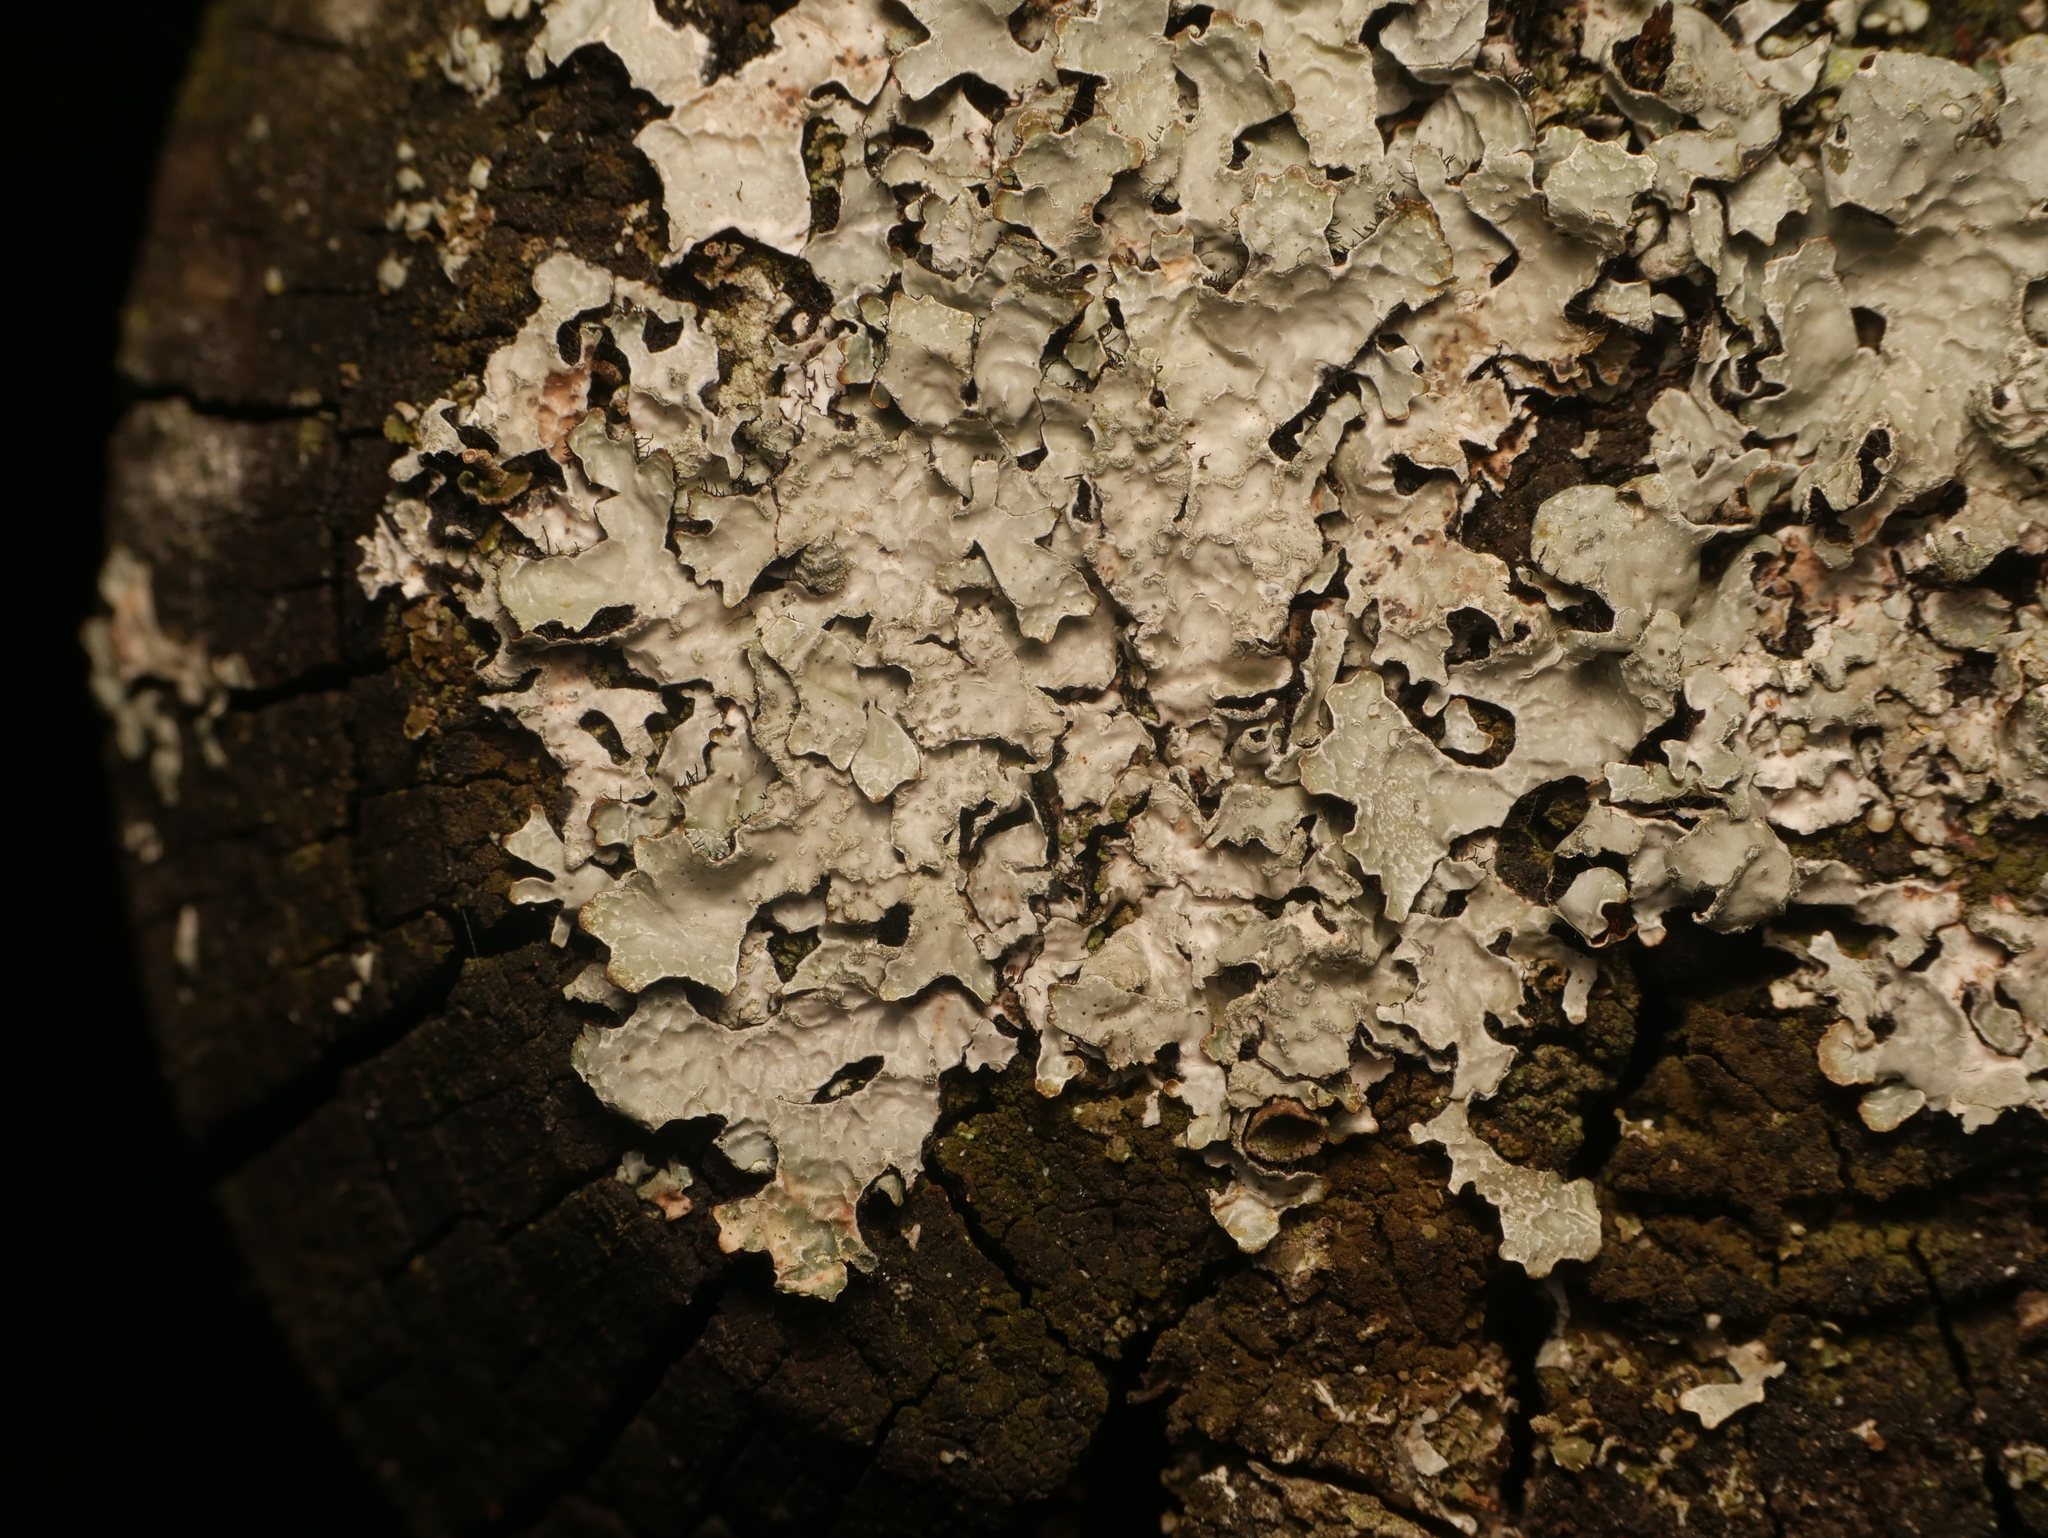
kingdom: Fungi
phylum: Ascomycota
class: Lecanoromycetes
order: Lecanorales
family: Parmeliaceae
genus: Parmelia
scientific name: Parmelia sulcata
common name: Netted shield lichen
